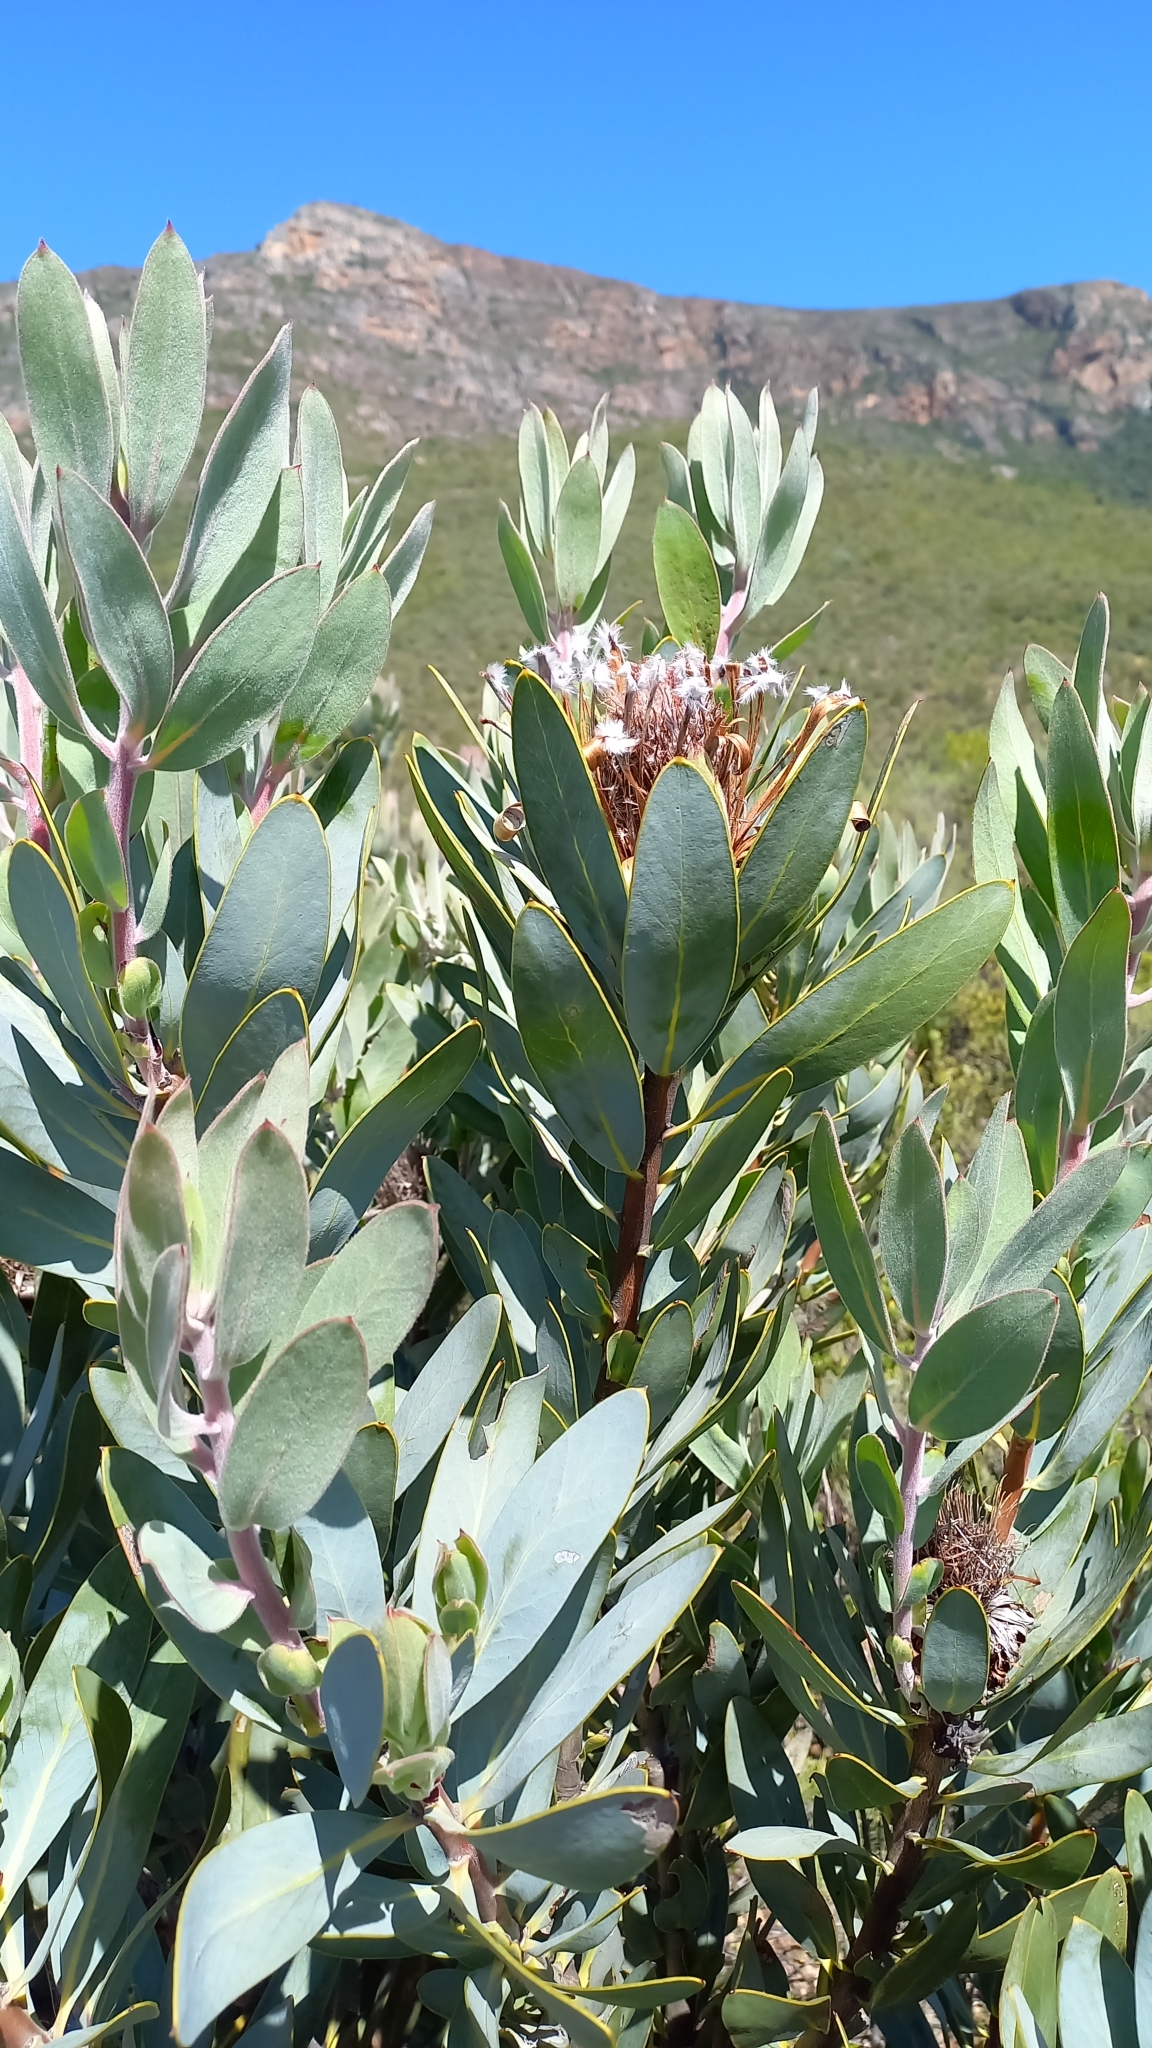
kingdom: Plantae
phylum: Tracheophyta
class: Magnoliopsida
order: Proteales
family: Proteaceae
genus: Protea
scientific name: Protea laurifolia
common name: Grey-leaf sugarbsh
